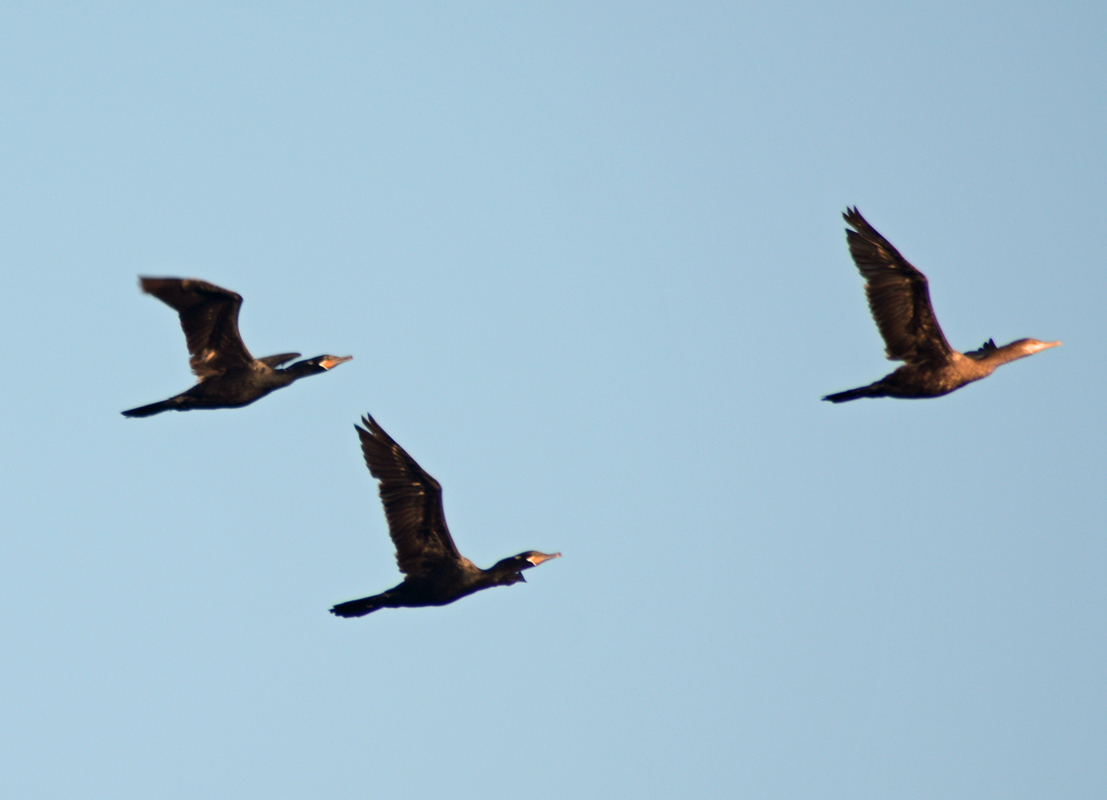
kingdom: Animalia
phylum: Chordata
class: Aves
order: Suliformes
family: Phalacrocoracidae
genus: Phalacrocorax
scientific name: Phalacrocorax brasilianus
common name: Neotropic cormorant
